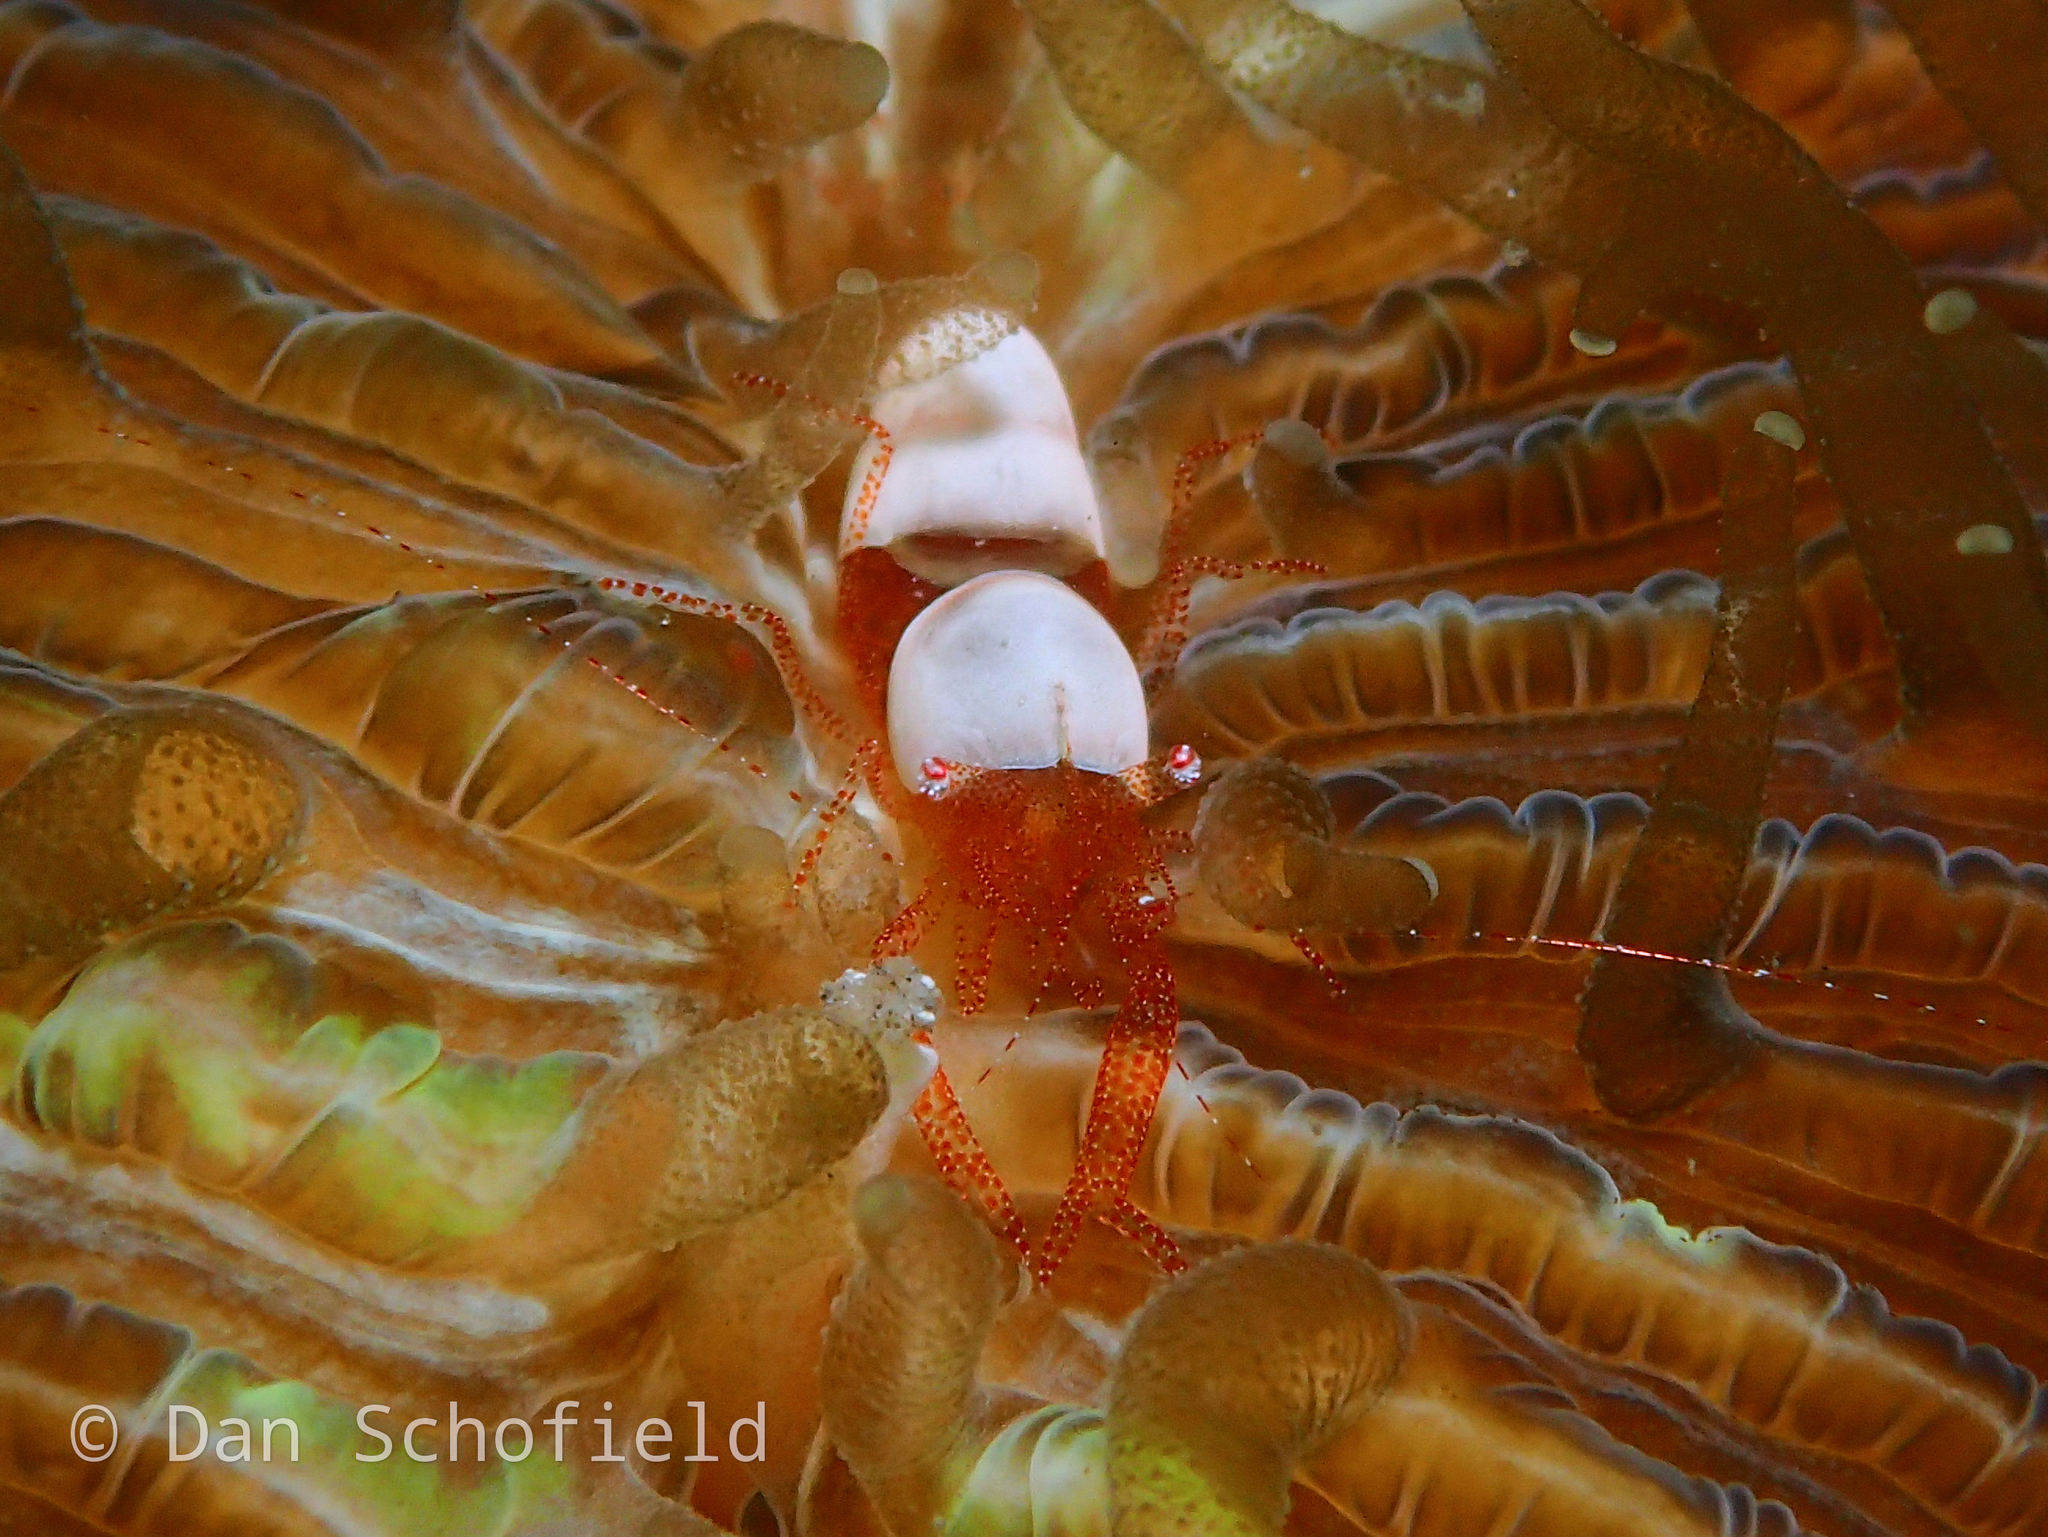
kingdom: Animalia
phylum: Arthropoda
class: Malacostraca
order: Decapoda
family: Palaemonidae
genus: Hamopontonia
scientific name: Hamopontonia fungicola
